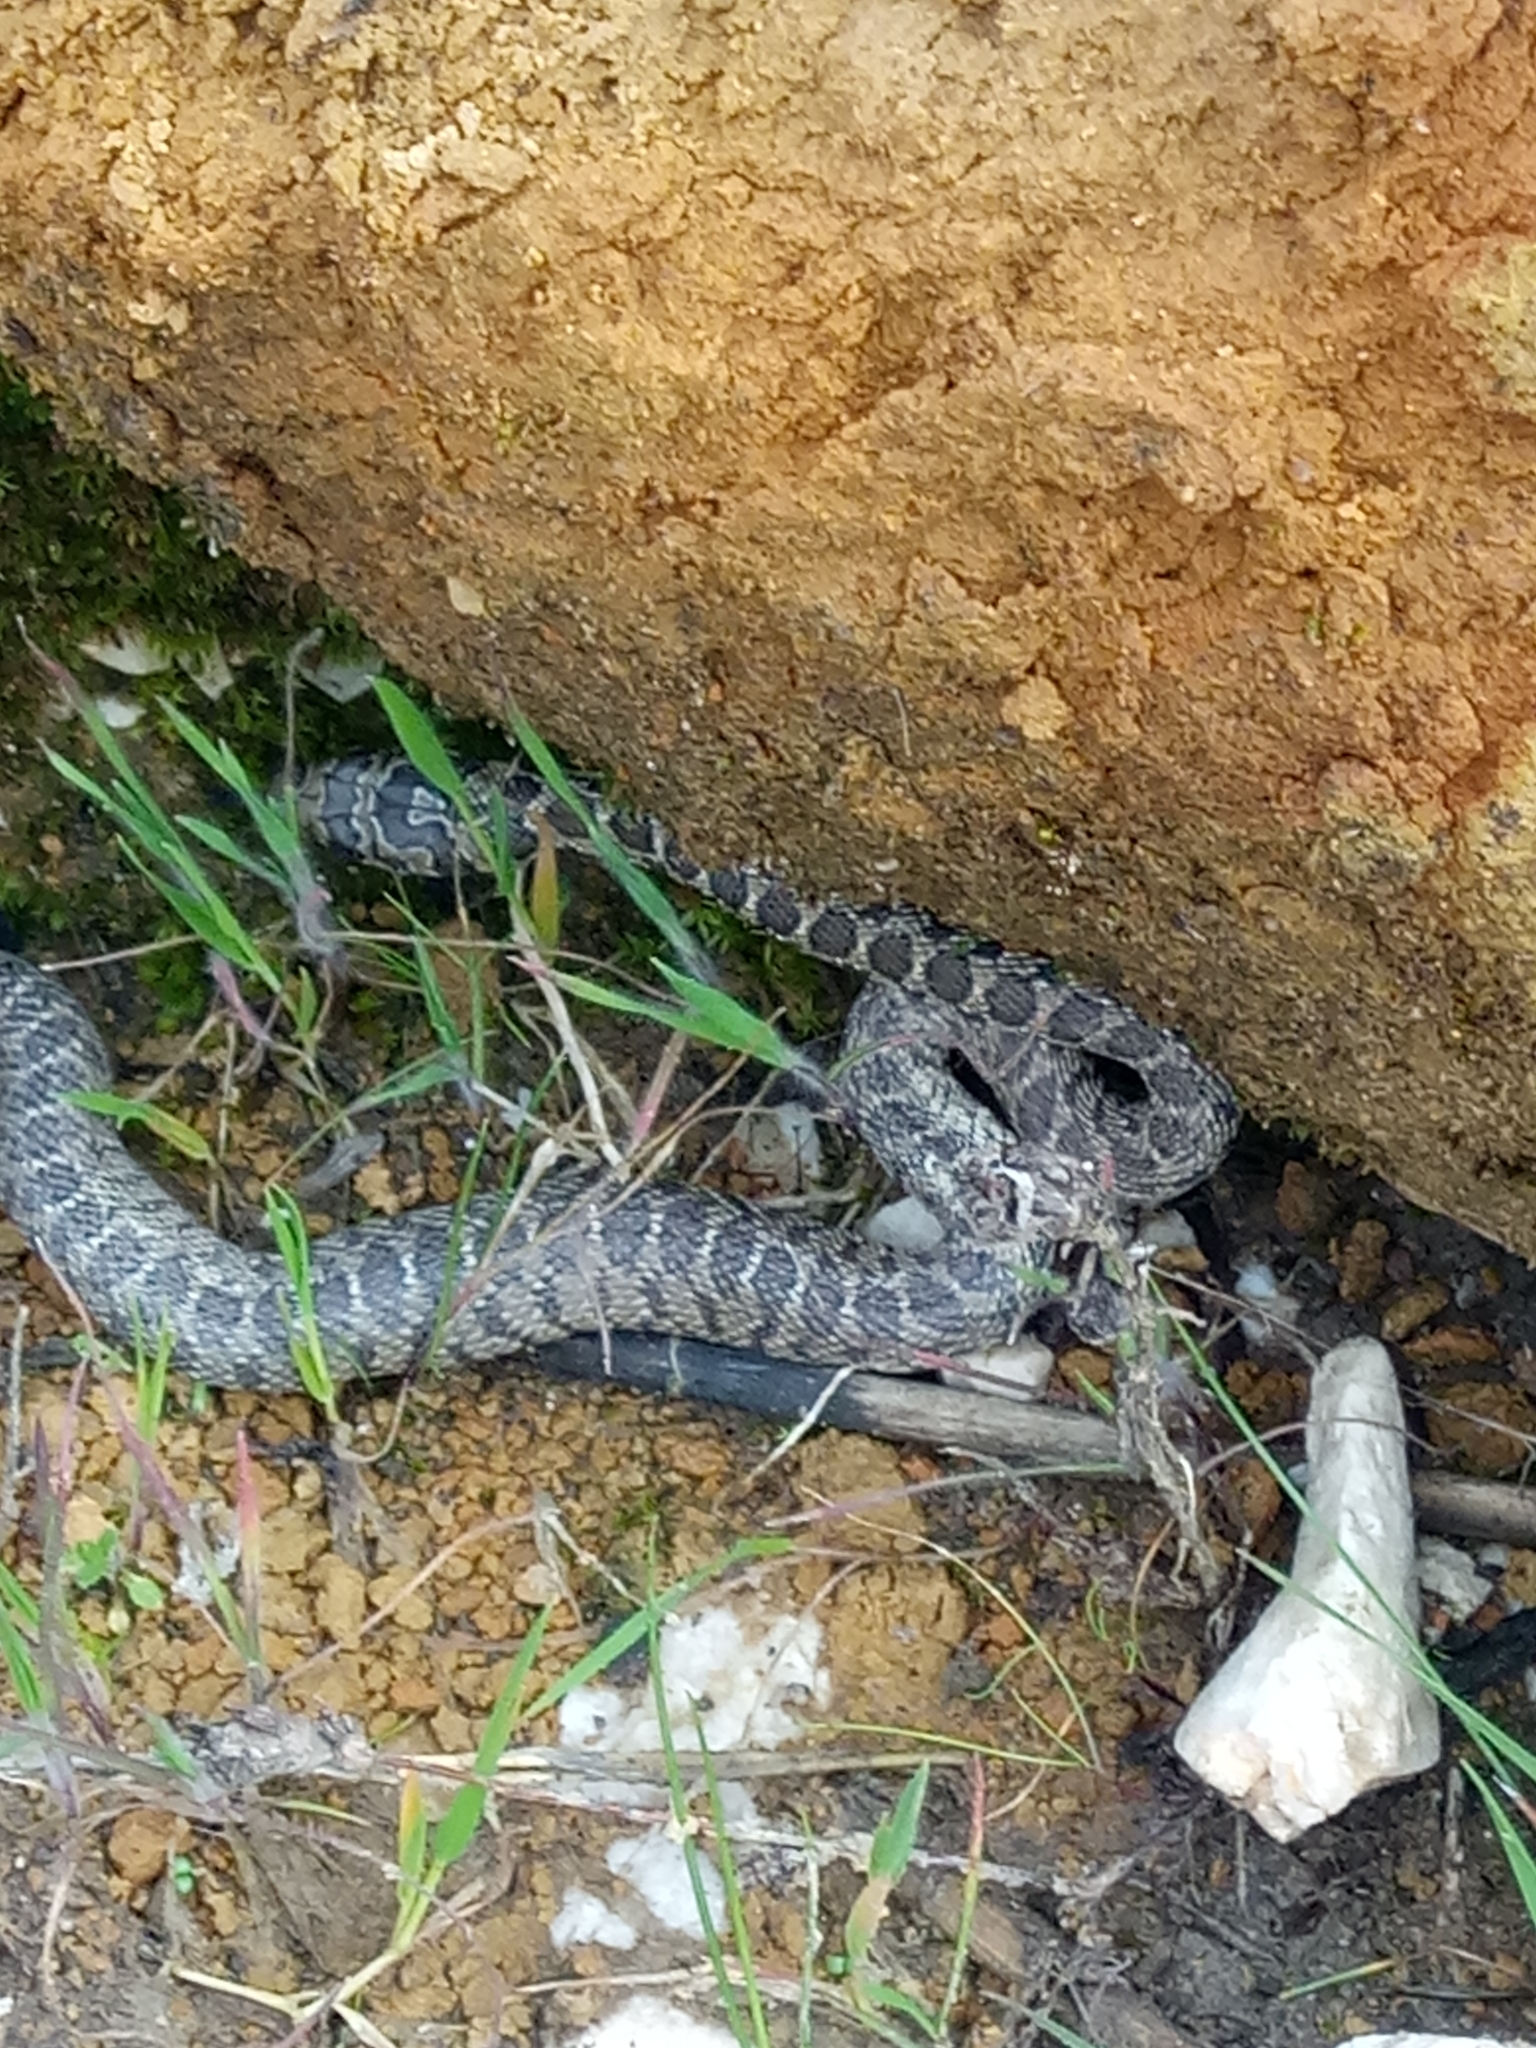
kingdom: Animalia
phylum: Chordata
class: Squamata
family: Colubridae
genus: Hemorrhois
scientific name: Hemorrhois hippocrepis
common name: Horseshoe whip snake
